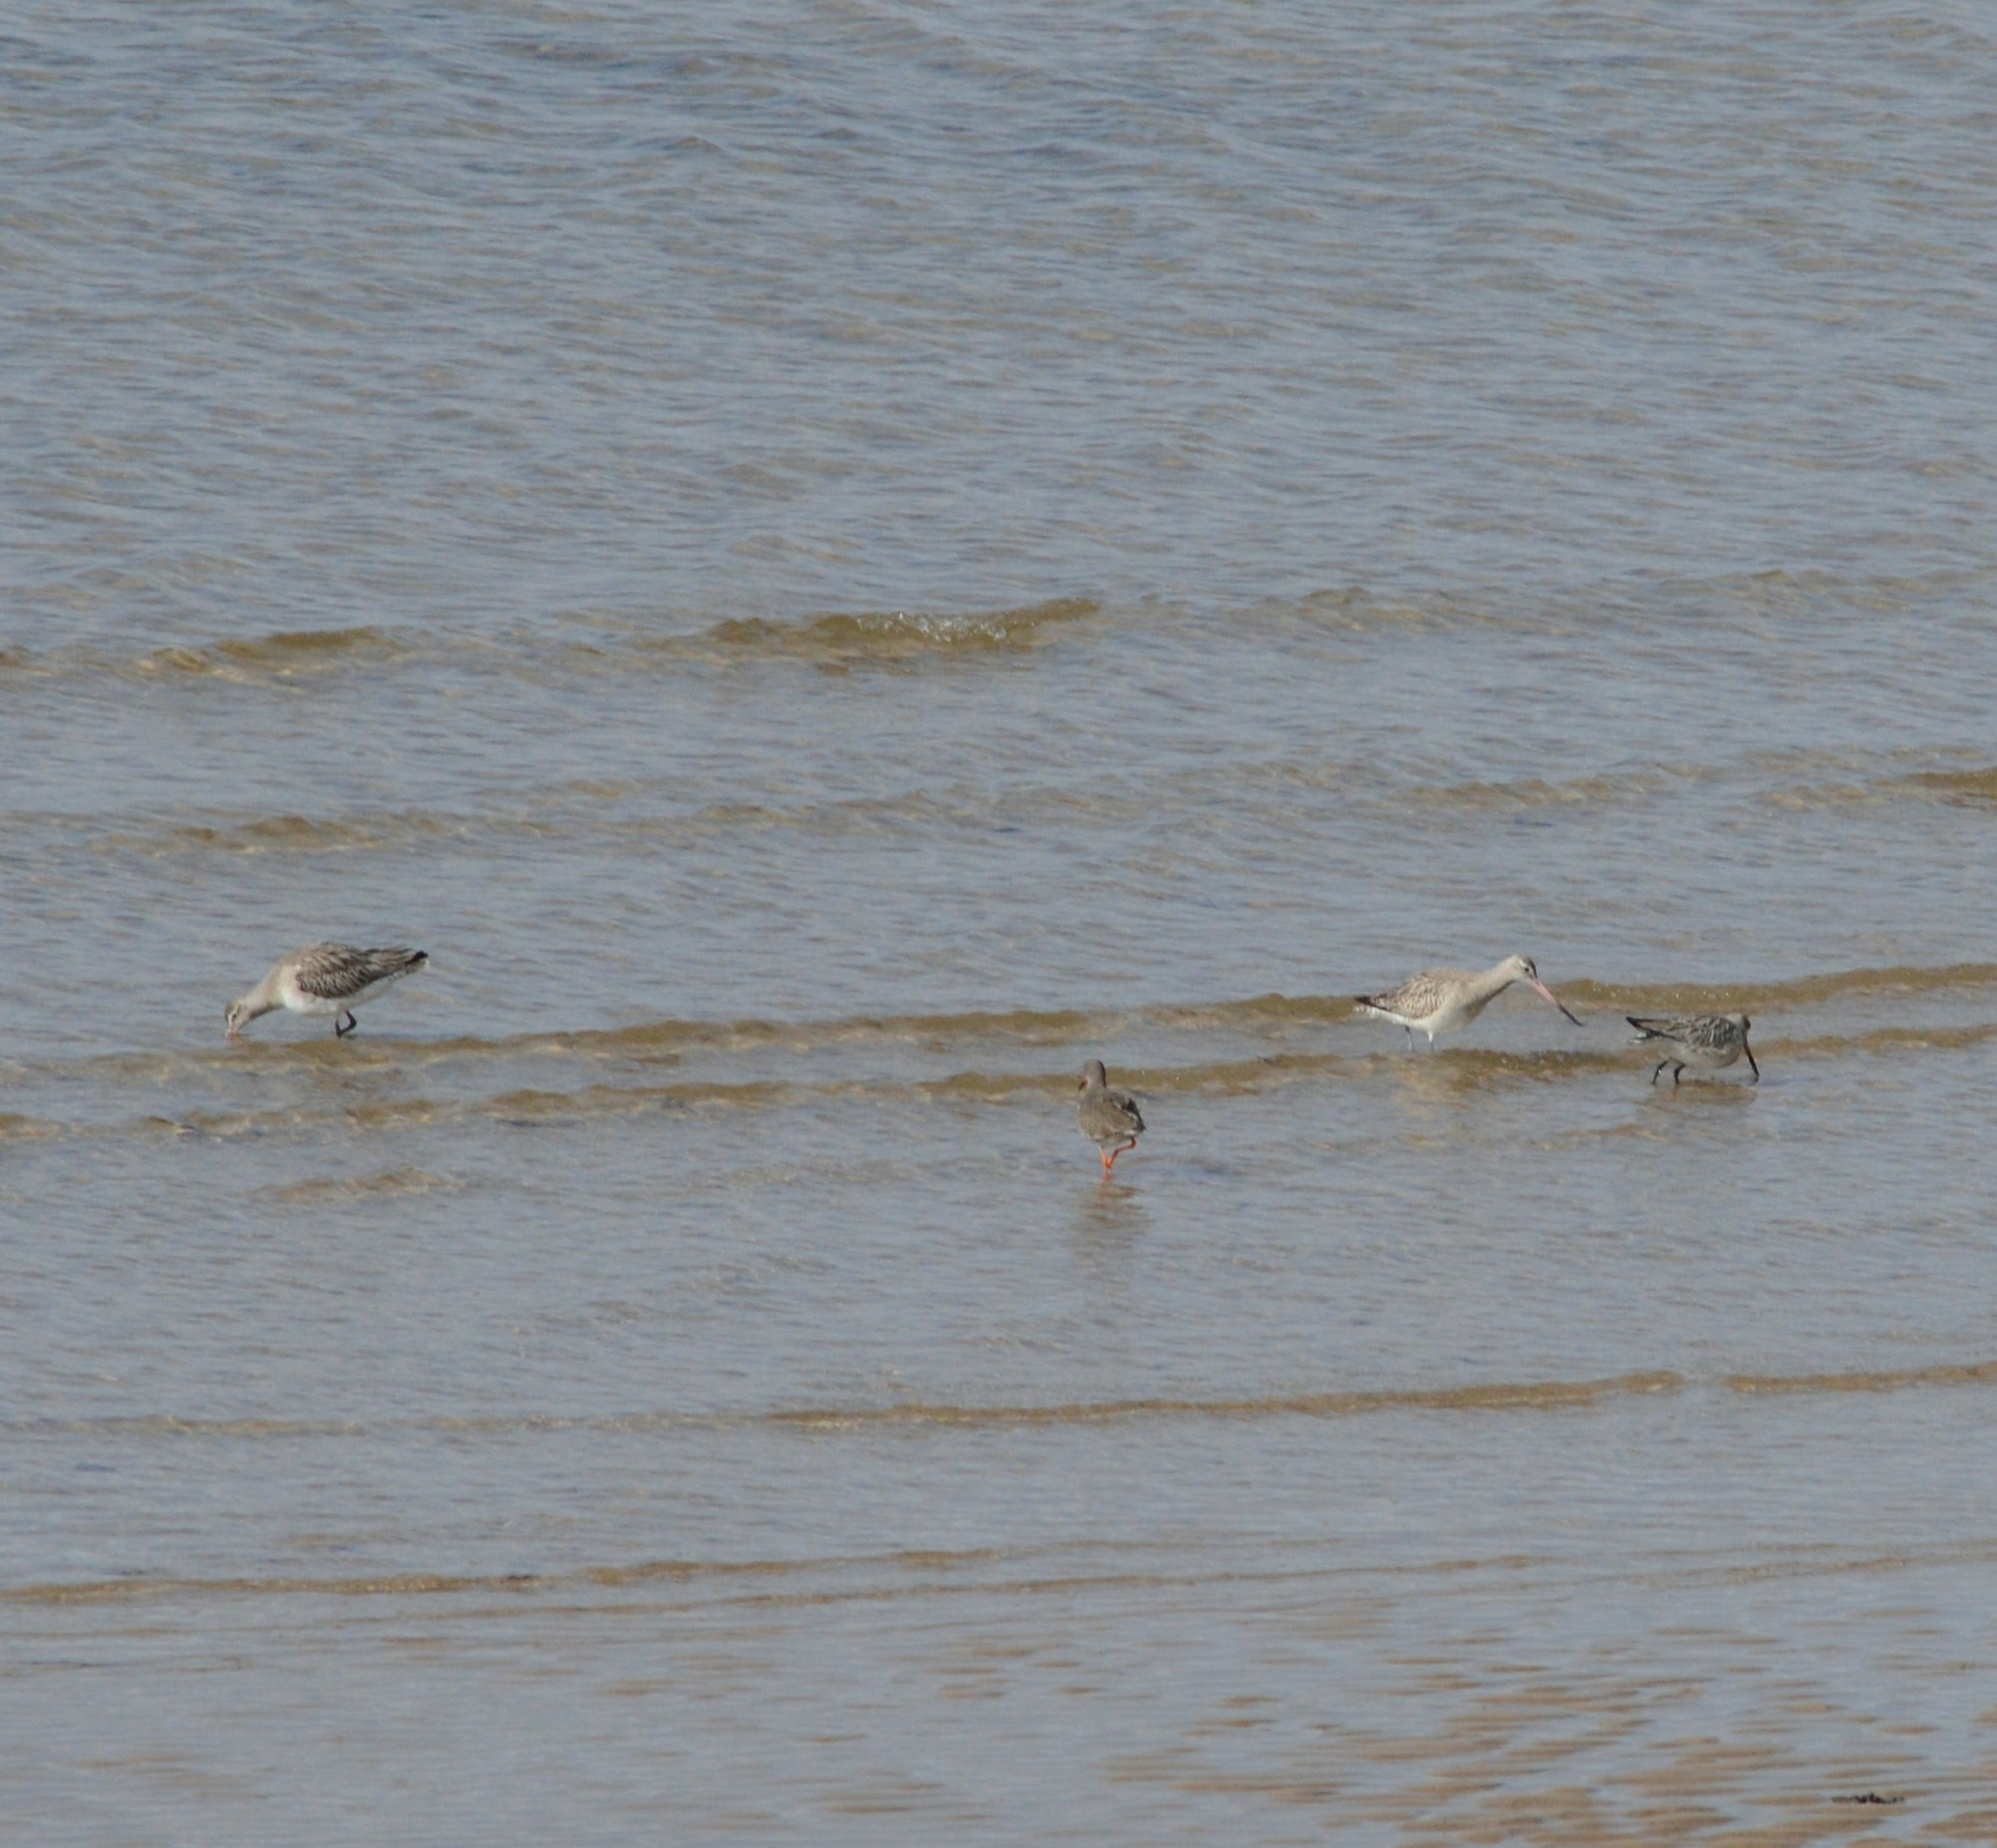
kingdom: Animalia
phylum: Chordata
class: Aves
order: Charadriiformes
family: Scolopacidae
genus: Limosa
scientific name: Limosa lapponica
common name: Bar-tailed godwit
